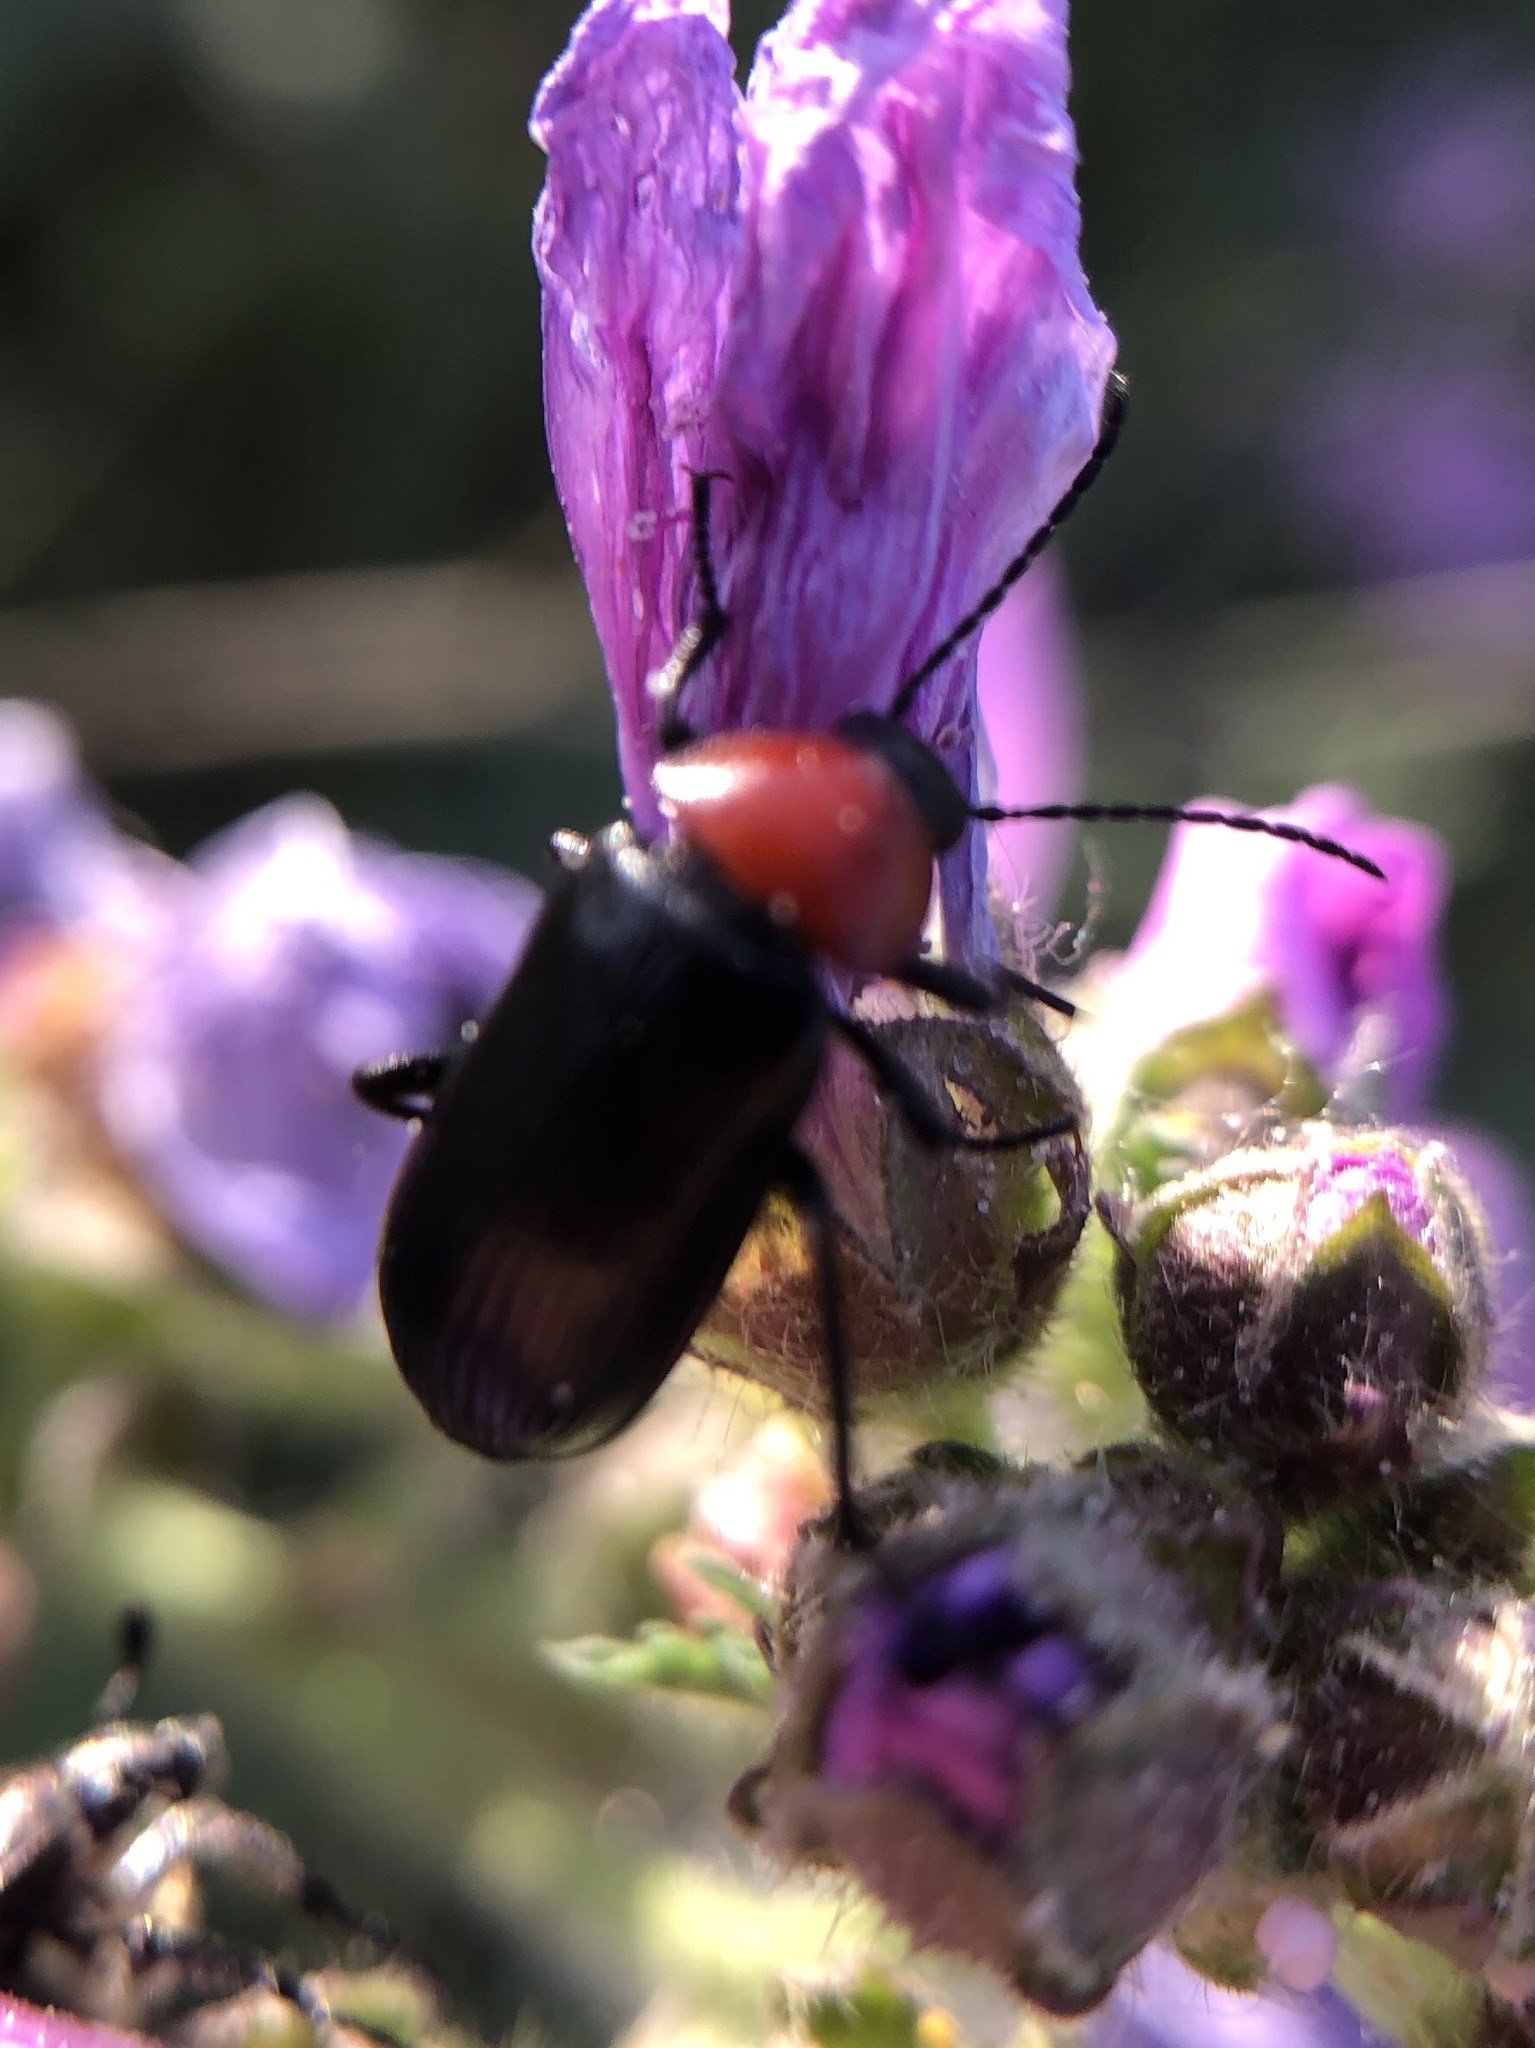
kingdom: Animalia
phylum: Arthropoda
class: Insecta
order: Coleoptera
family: Tenebrionidae
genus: Heliotaurus
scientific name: Heliotaurus ruficollis
